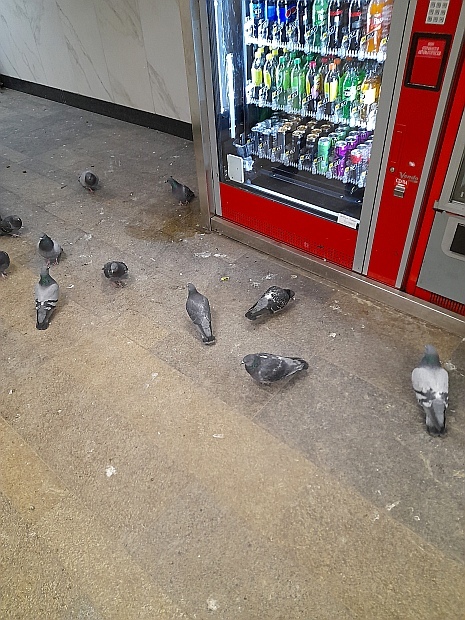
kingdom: Animalia
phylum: Chordata
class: Aves
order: Columbiformes
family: Columbidae
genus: Columba
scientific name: Columba livia
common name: Rock pigeon
